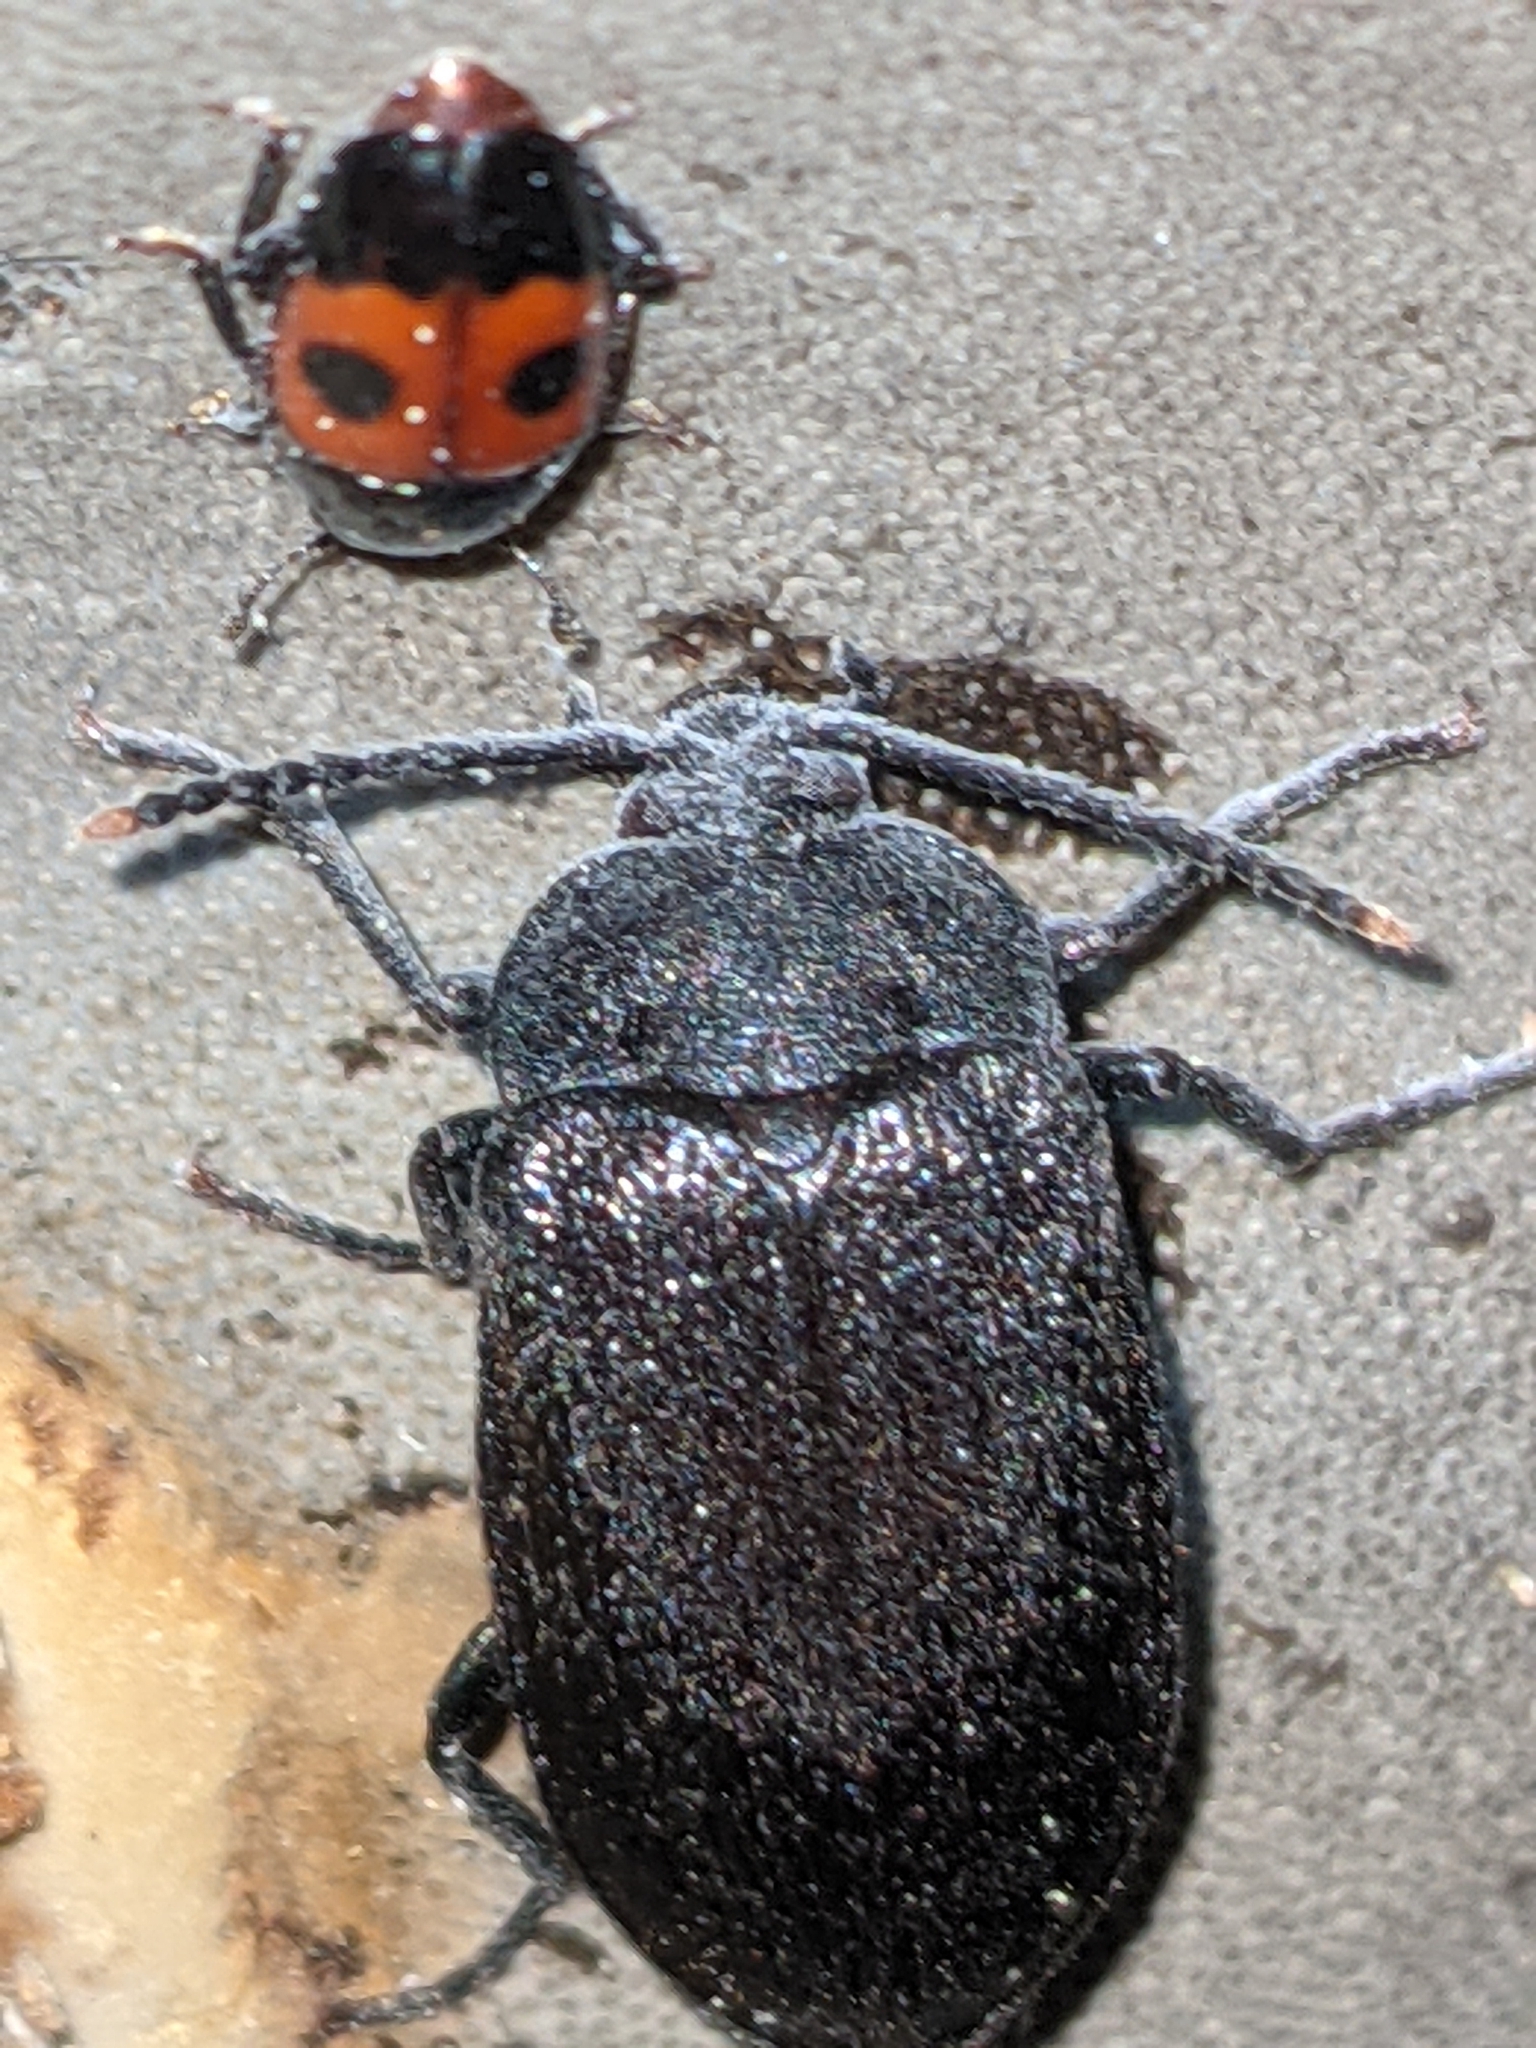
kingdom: Animalia
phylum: Arthropoda
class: Insecta
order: Coleoptera
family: Tetratomidae
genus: Penthe
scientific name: Penthe pimelia
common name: Velvety bark beetle
